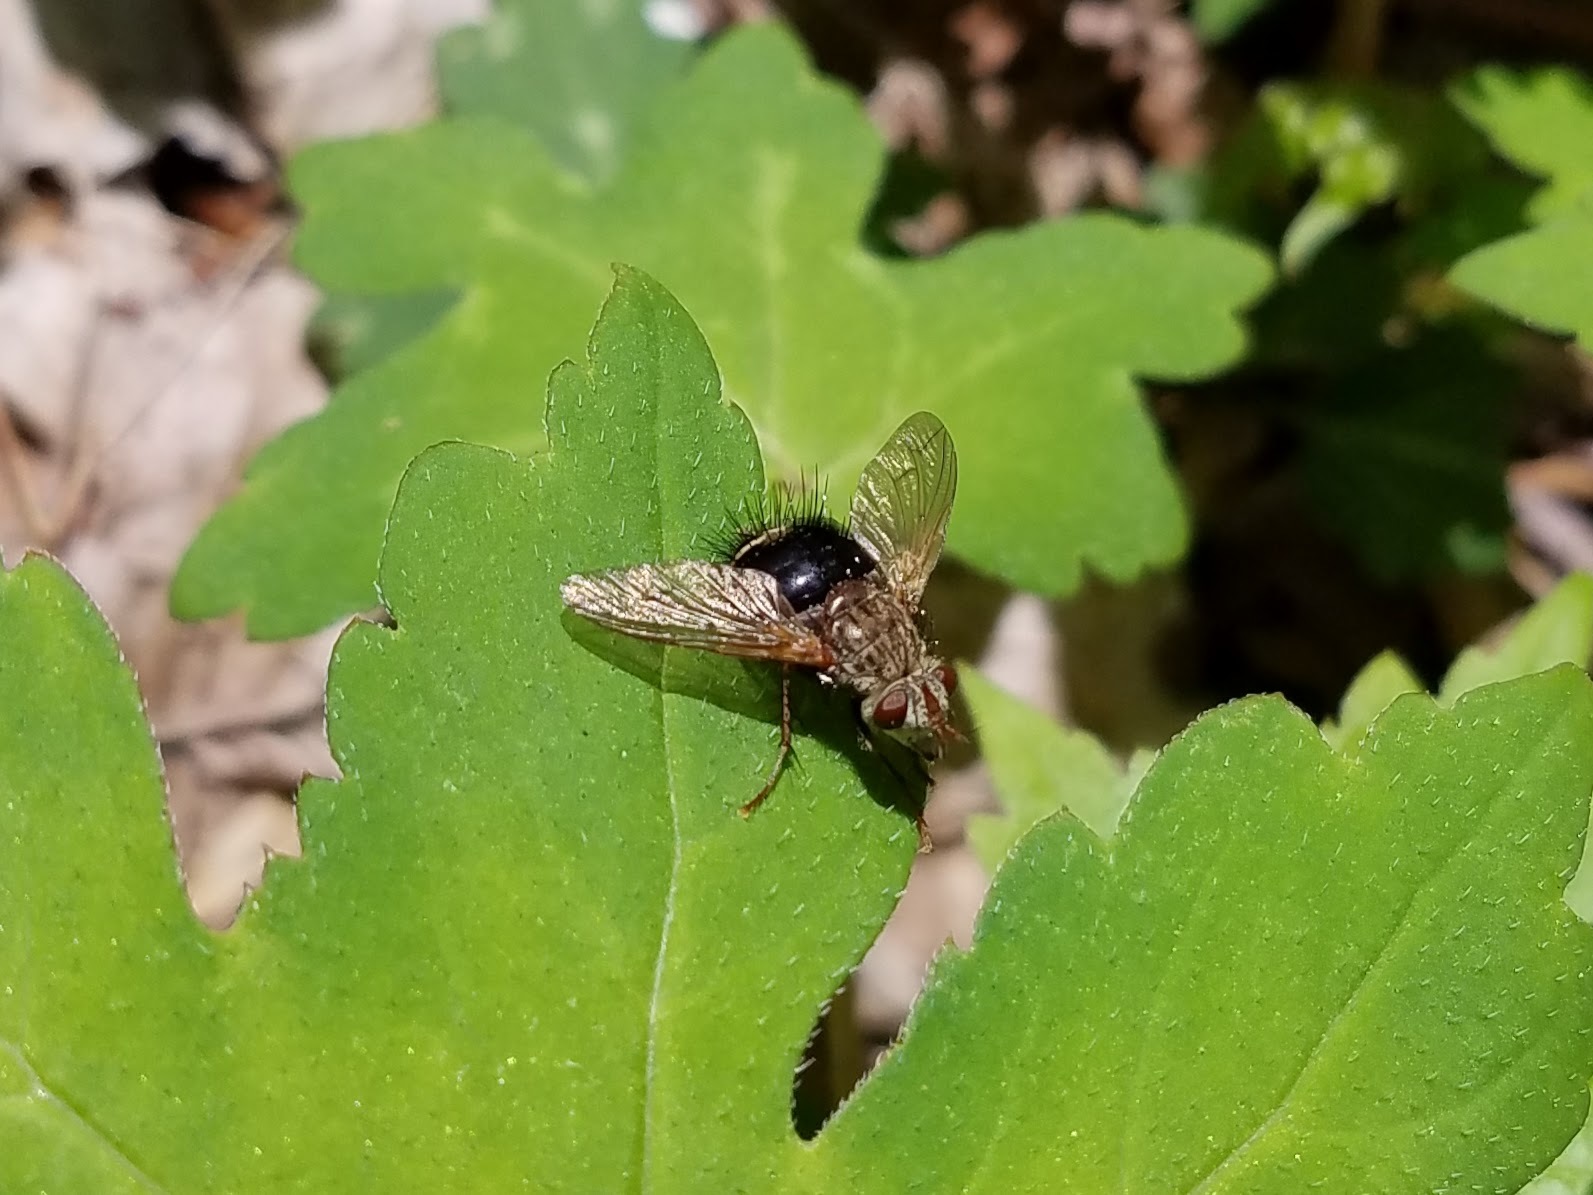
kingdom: Animalia
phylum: Arthropoda
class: Insecta
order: Diptera
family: Tachinidae
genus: Epalpus
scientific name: Epalpus signifer
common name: Early tachinid fly
